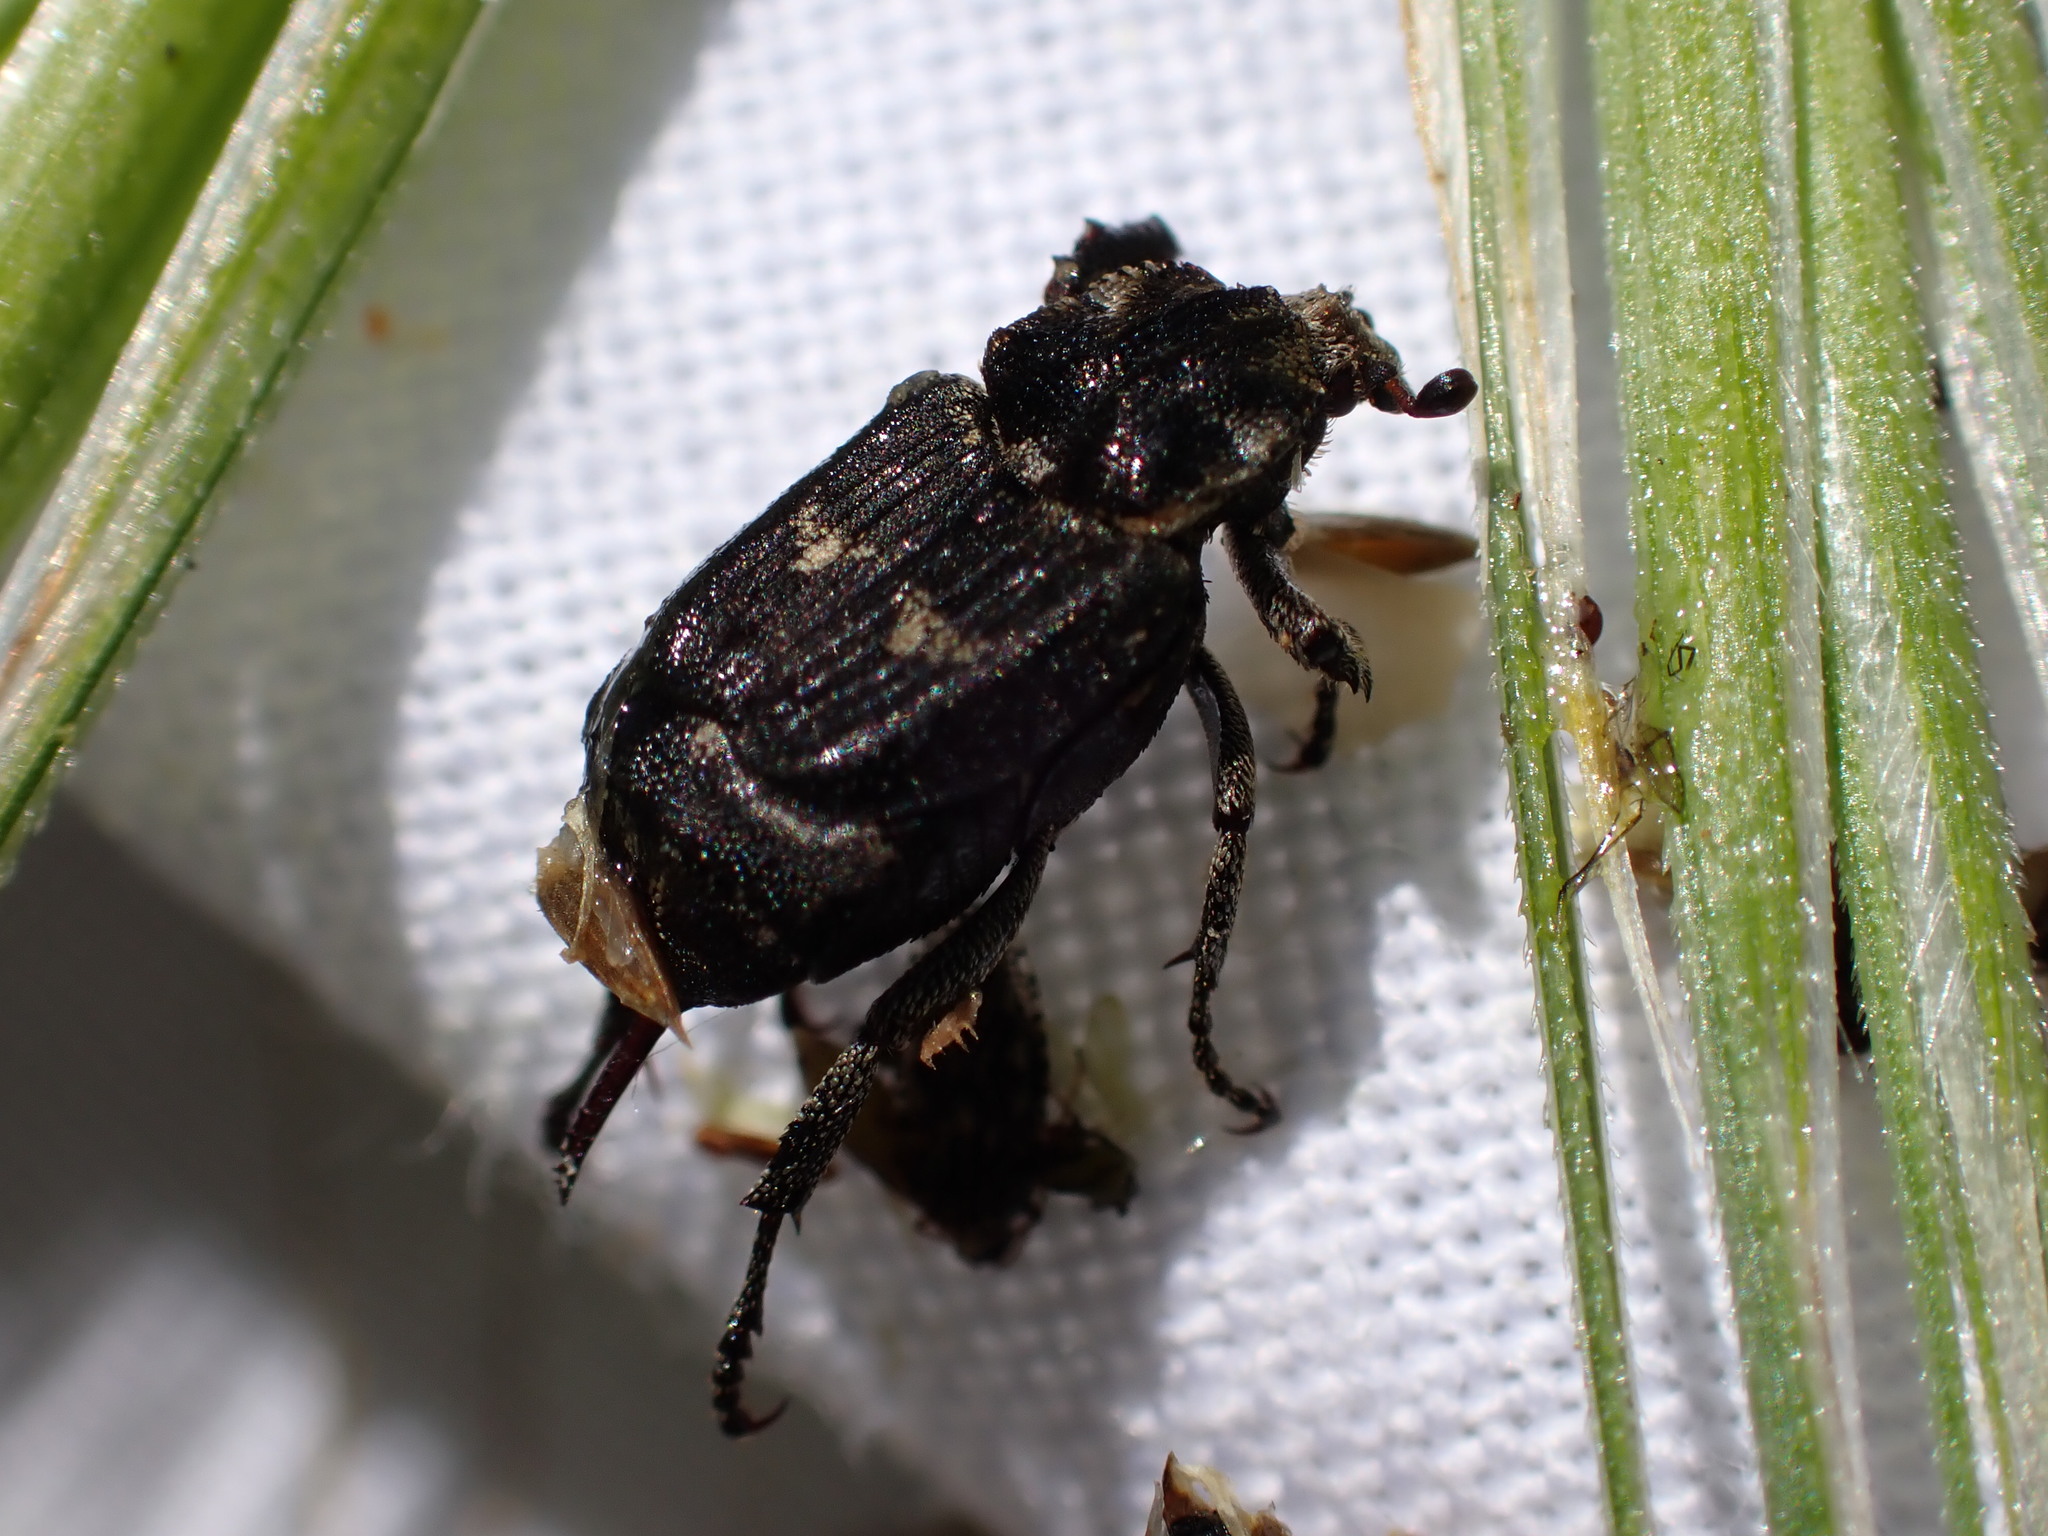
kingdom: Animalia
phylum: Arthropoda
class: Insecta
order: Coleoptera
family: Scarabaeidae
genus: Valgus
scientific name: Valgus hemipterus
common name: Bug flower chafer
